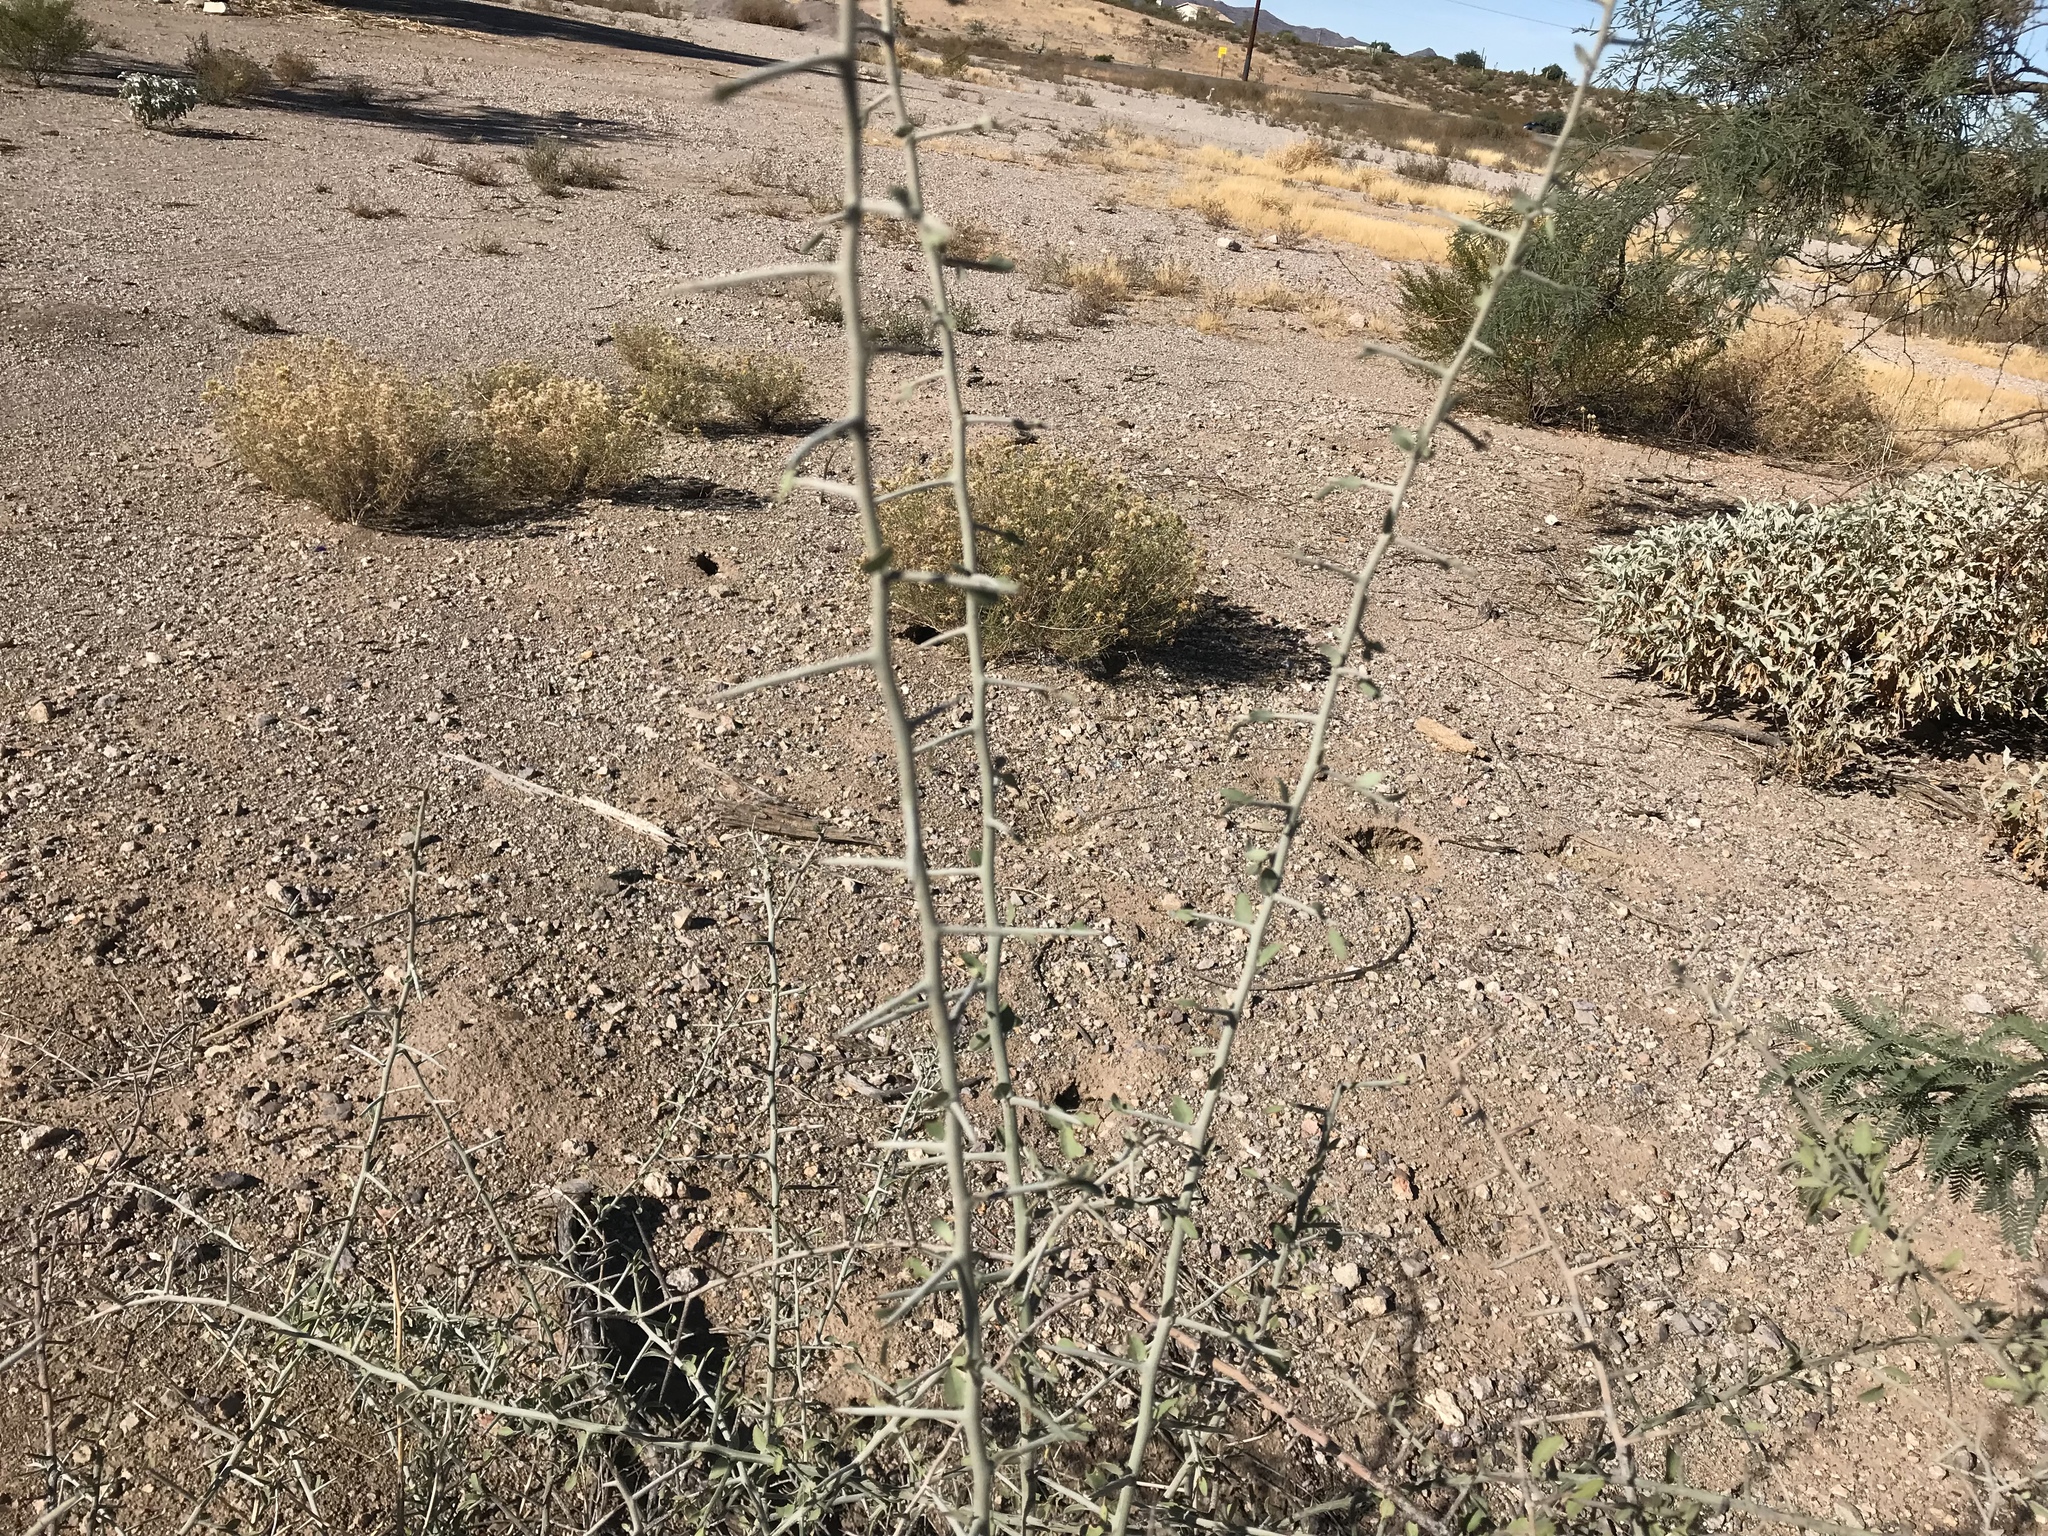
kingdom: Plantae
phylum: Tracheophyta
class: Magnoliopsida
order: Rosales
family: Rhamnaceae
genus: Sarcomphalus
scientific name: Sarcomphalus obtusifolius
